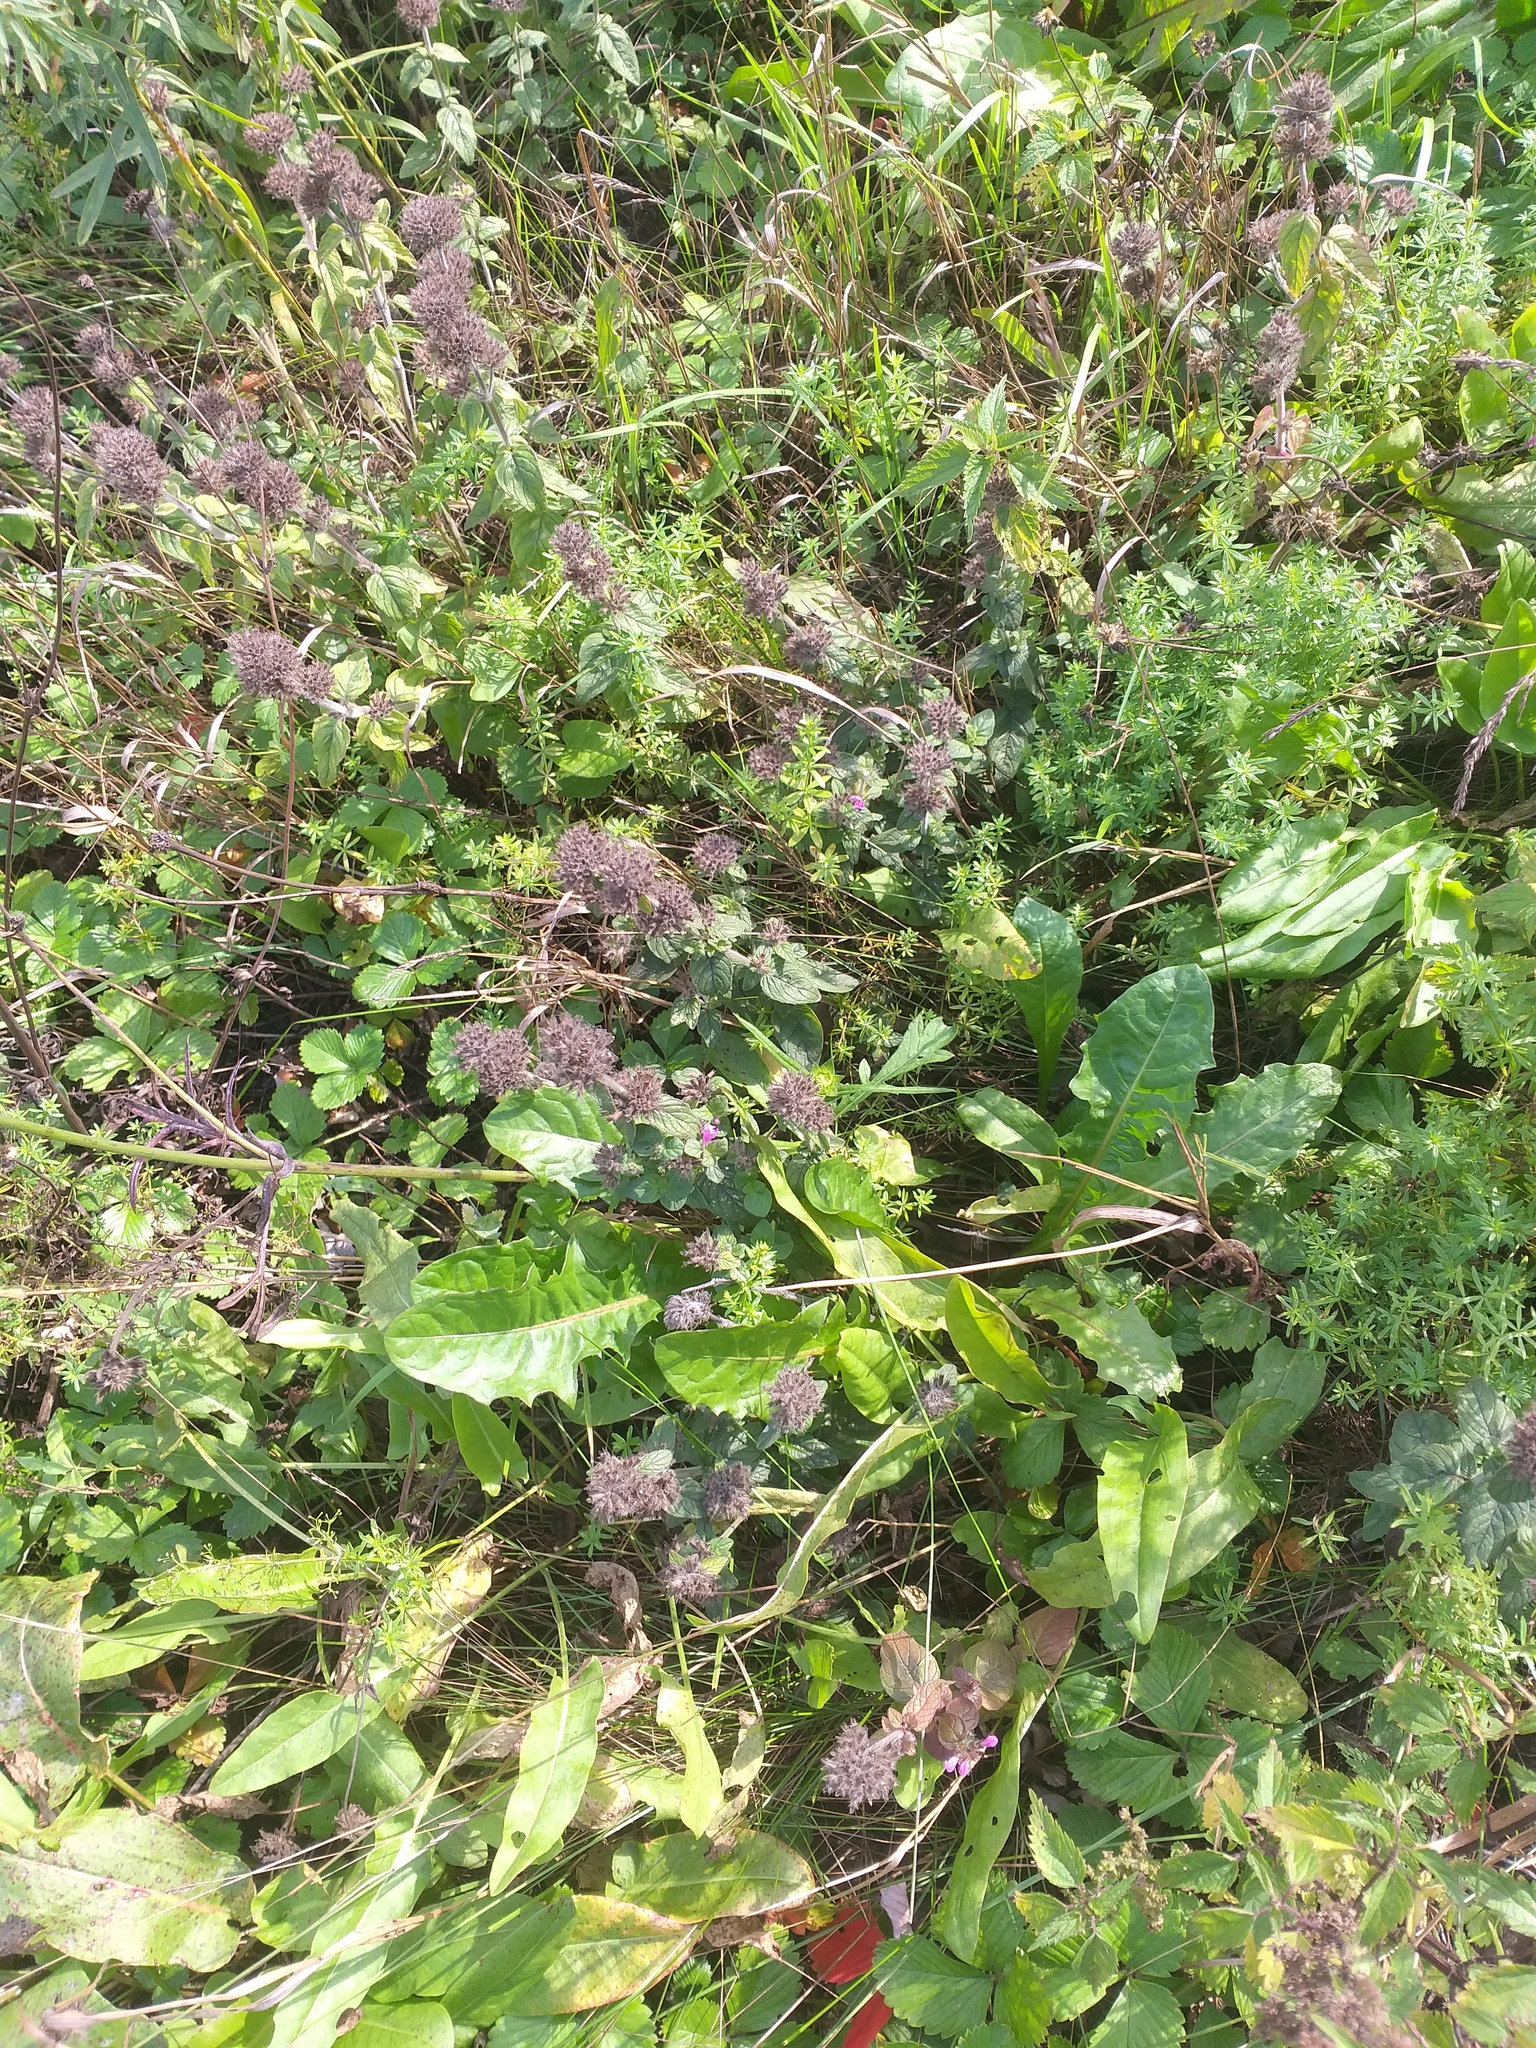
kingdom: Plantae
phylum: Tracheophyta
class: Magnoliopsida
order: Lamiales
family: Lamiaceae
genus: Clinopodium
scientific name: Clinopodium vulgare
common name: Wild basil
